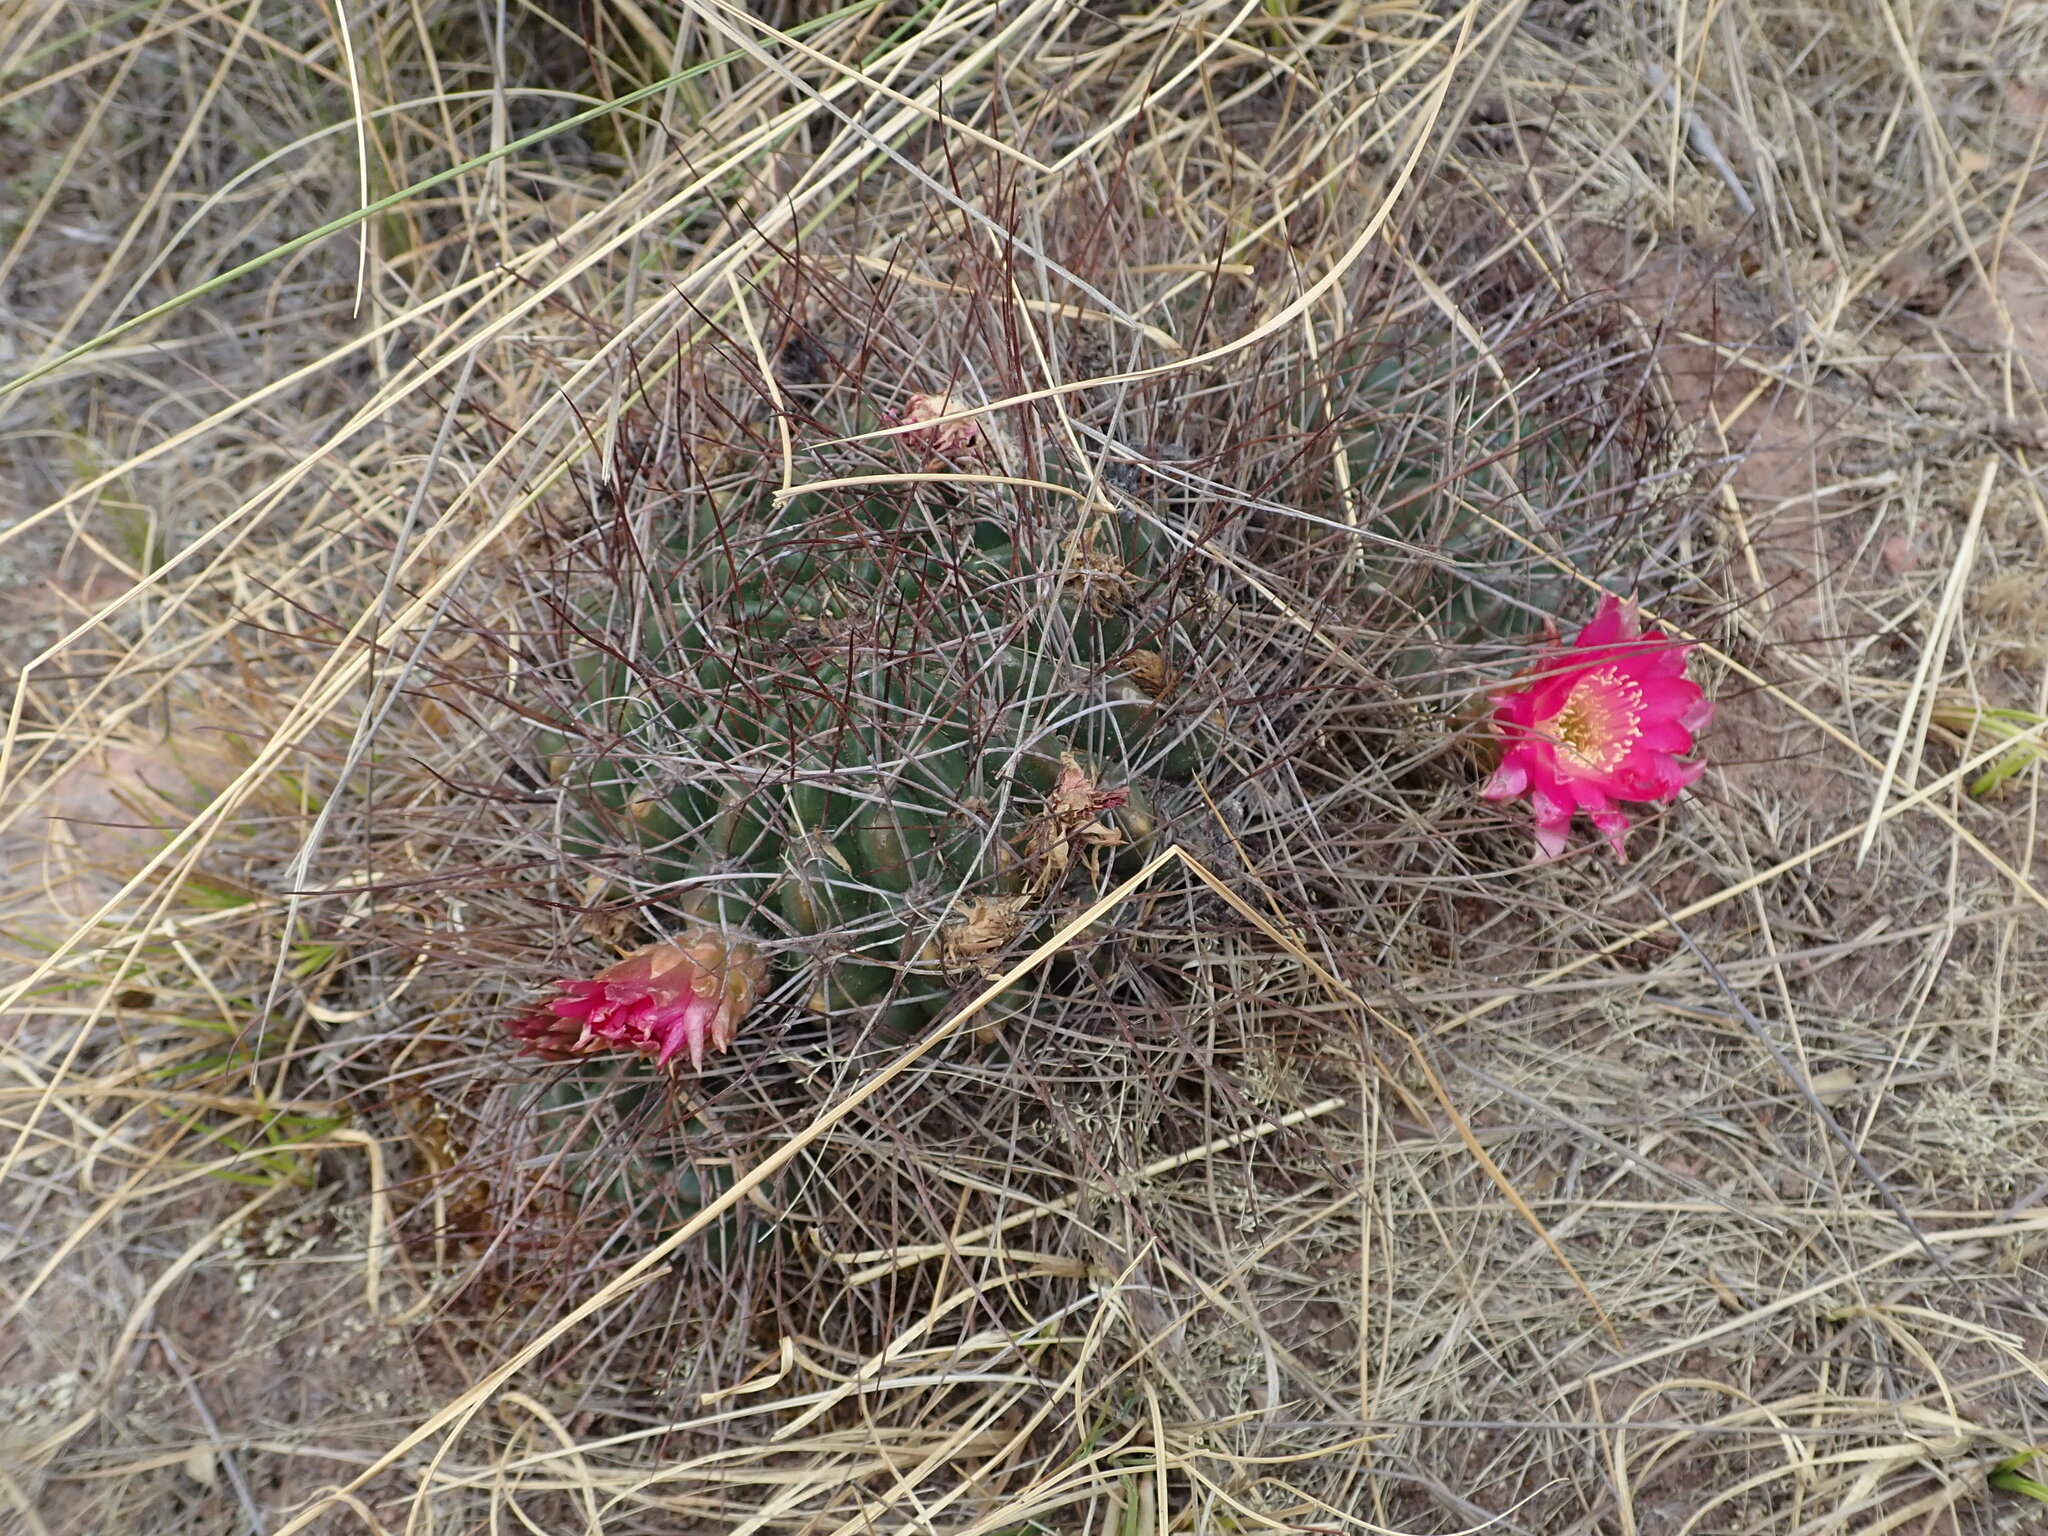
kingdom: Plantae
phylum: Tracheophyta
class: Magnoliopsida
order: Caryophyllales
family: Cactaceae
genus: Lobivia
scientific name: Lobivia pentlandii
